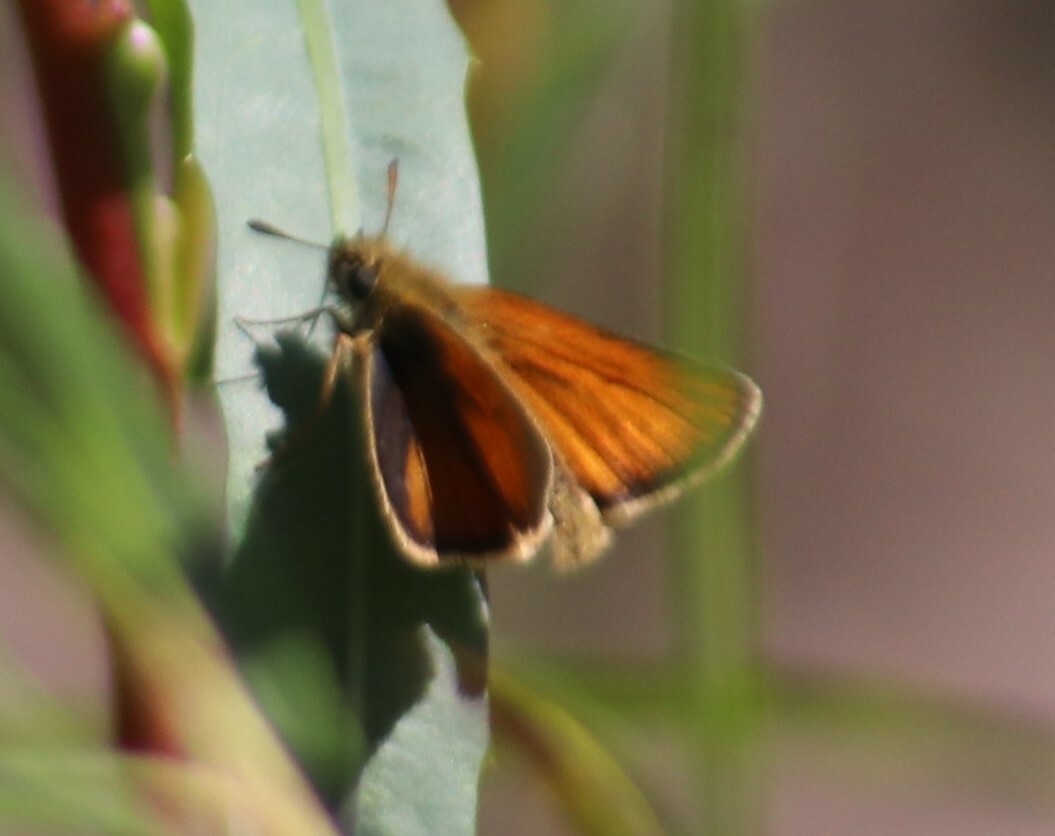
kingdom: Animalia
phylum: Arthropoda
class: Insecta
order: Lepidoptera
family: Hesperiidae
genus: Thymelicus
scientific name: Thymelicus lineola
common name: Essex skipper
